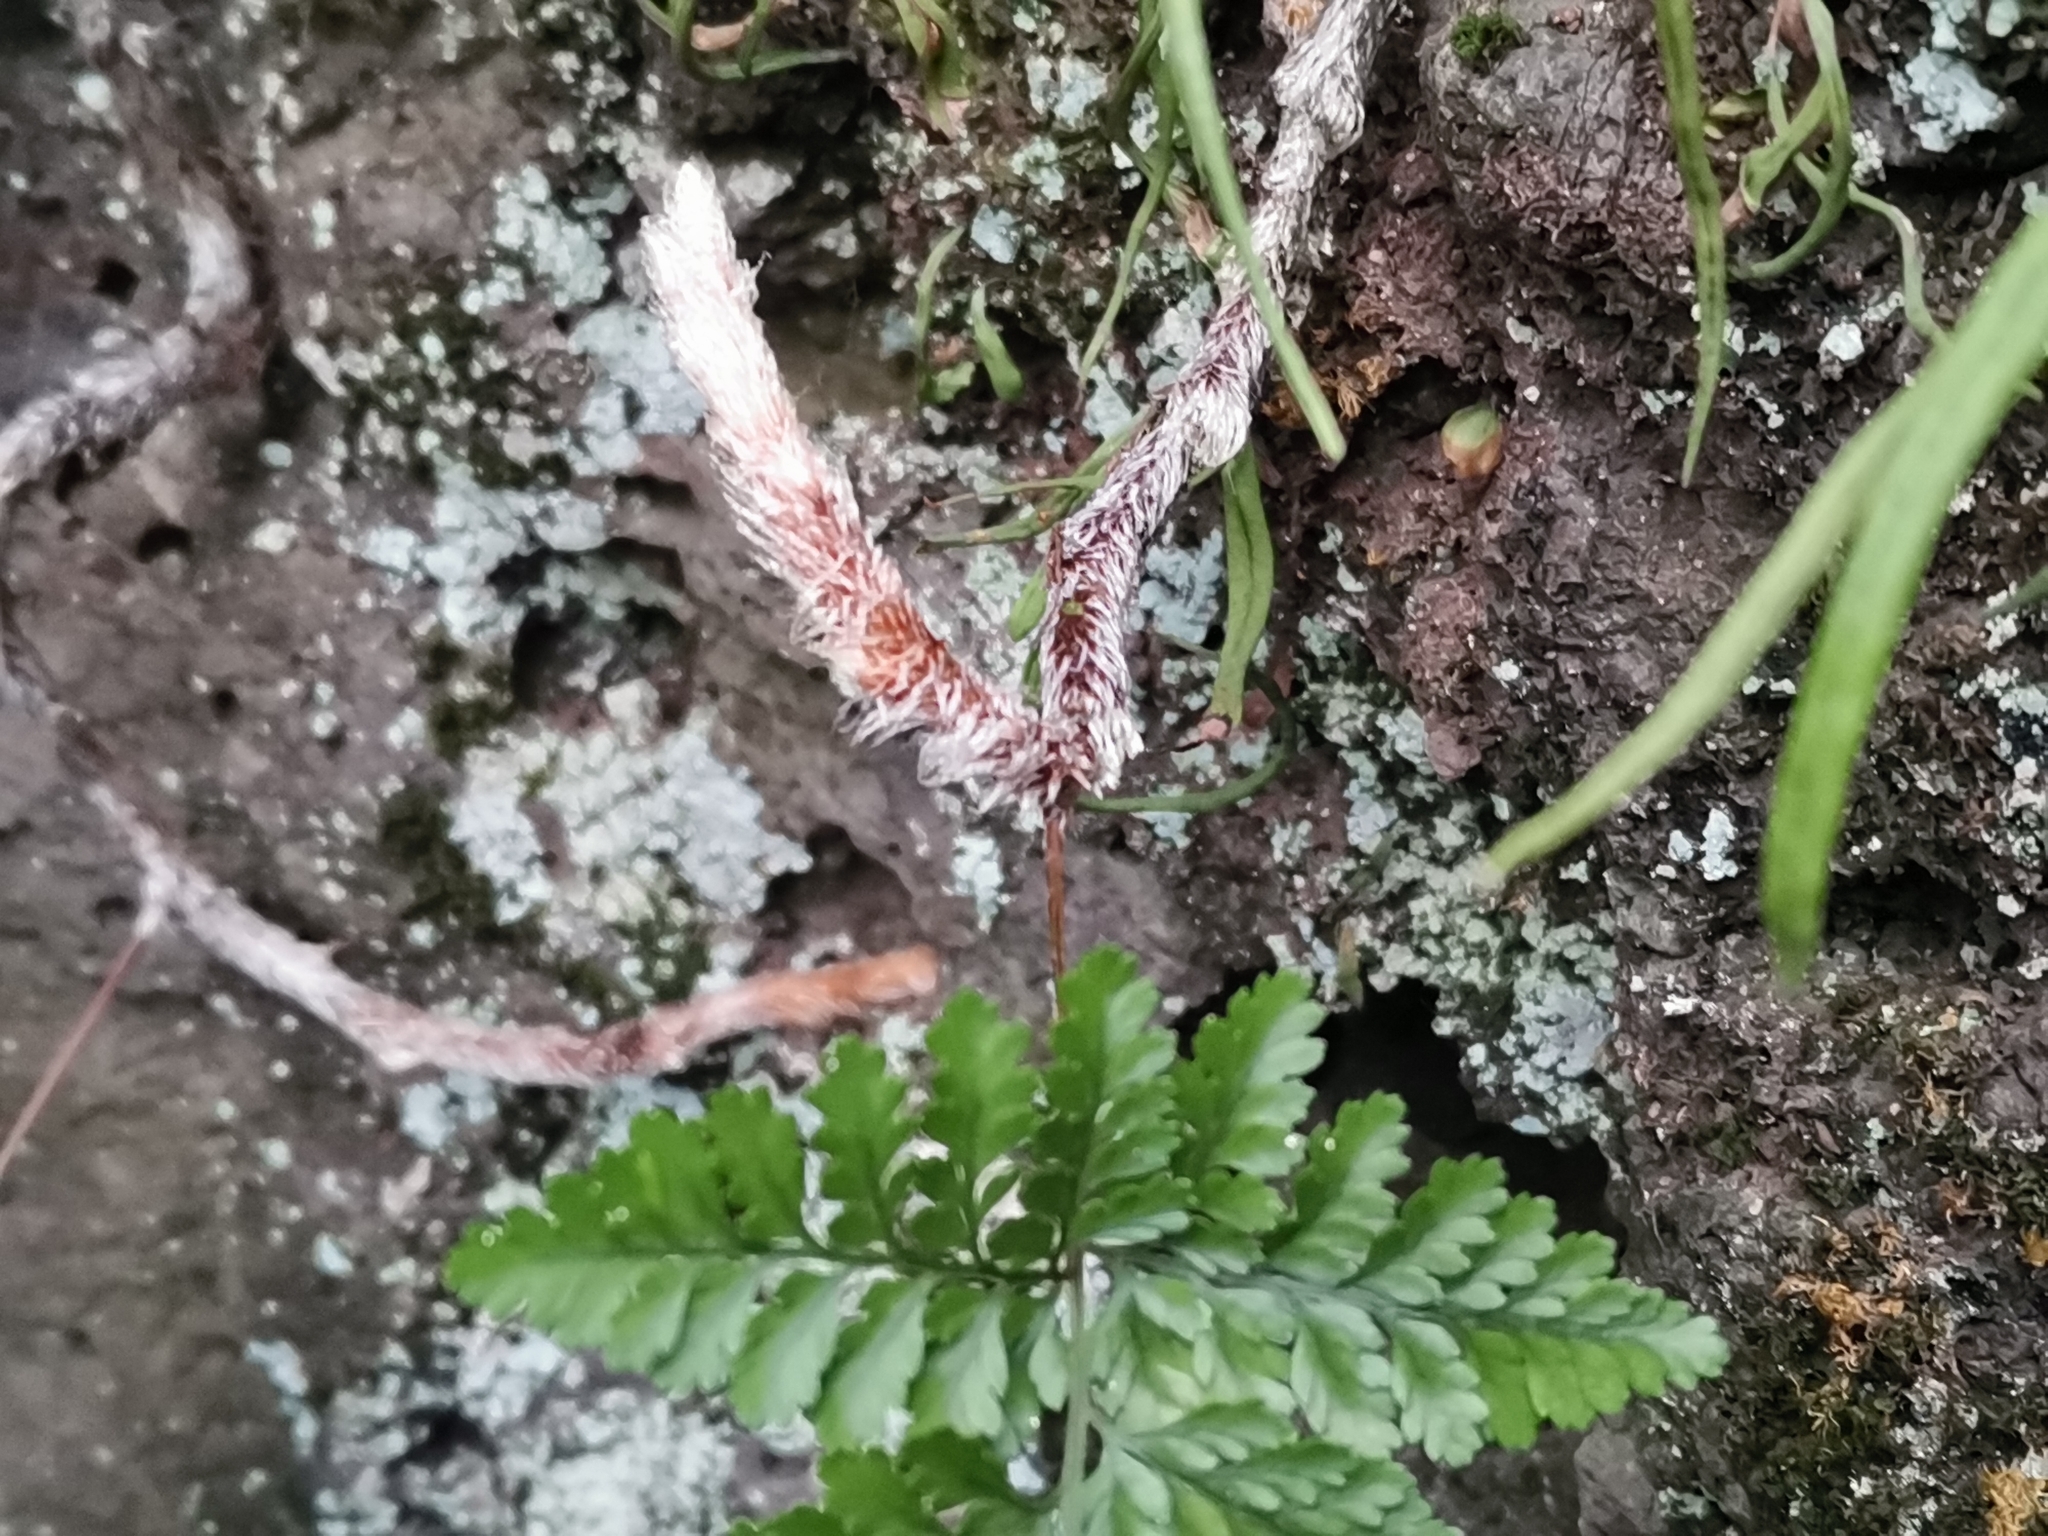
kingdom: Plantae
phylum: Tracheophyta
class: Polypodiopsida
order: Polypodiales
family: Davalliaceae
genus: Davallia
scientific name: Davallia mariesii
